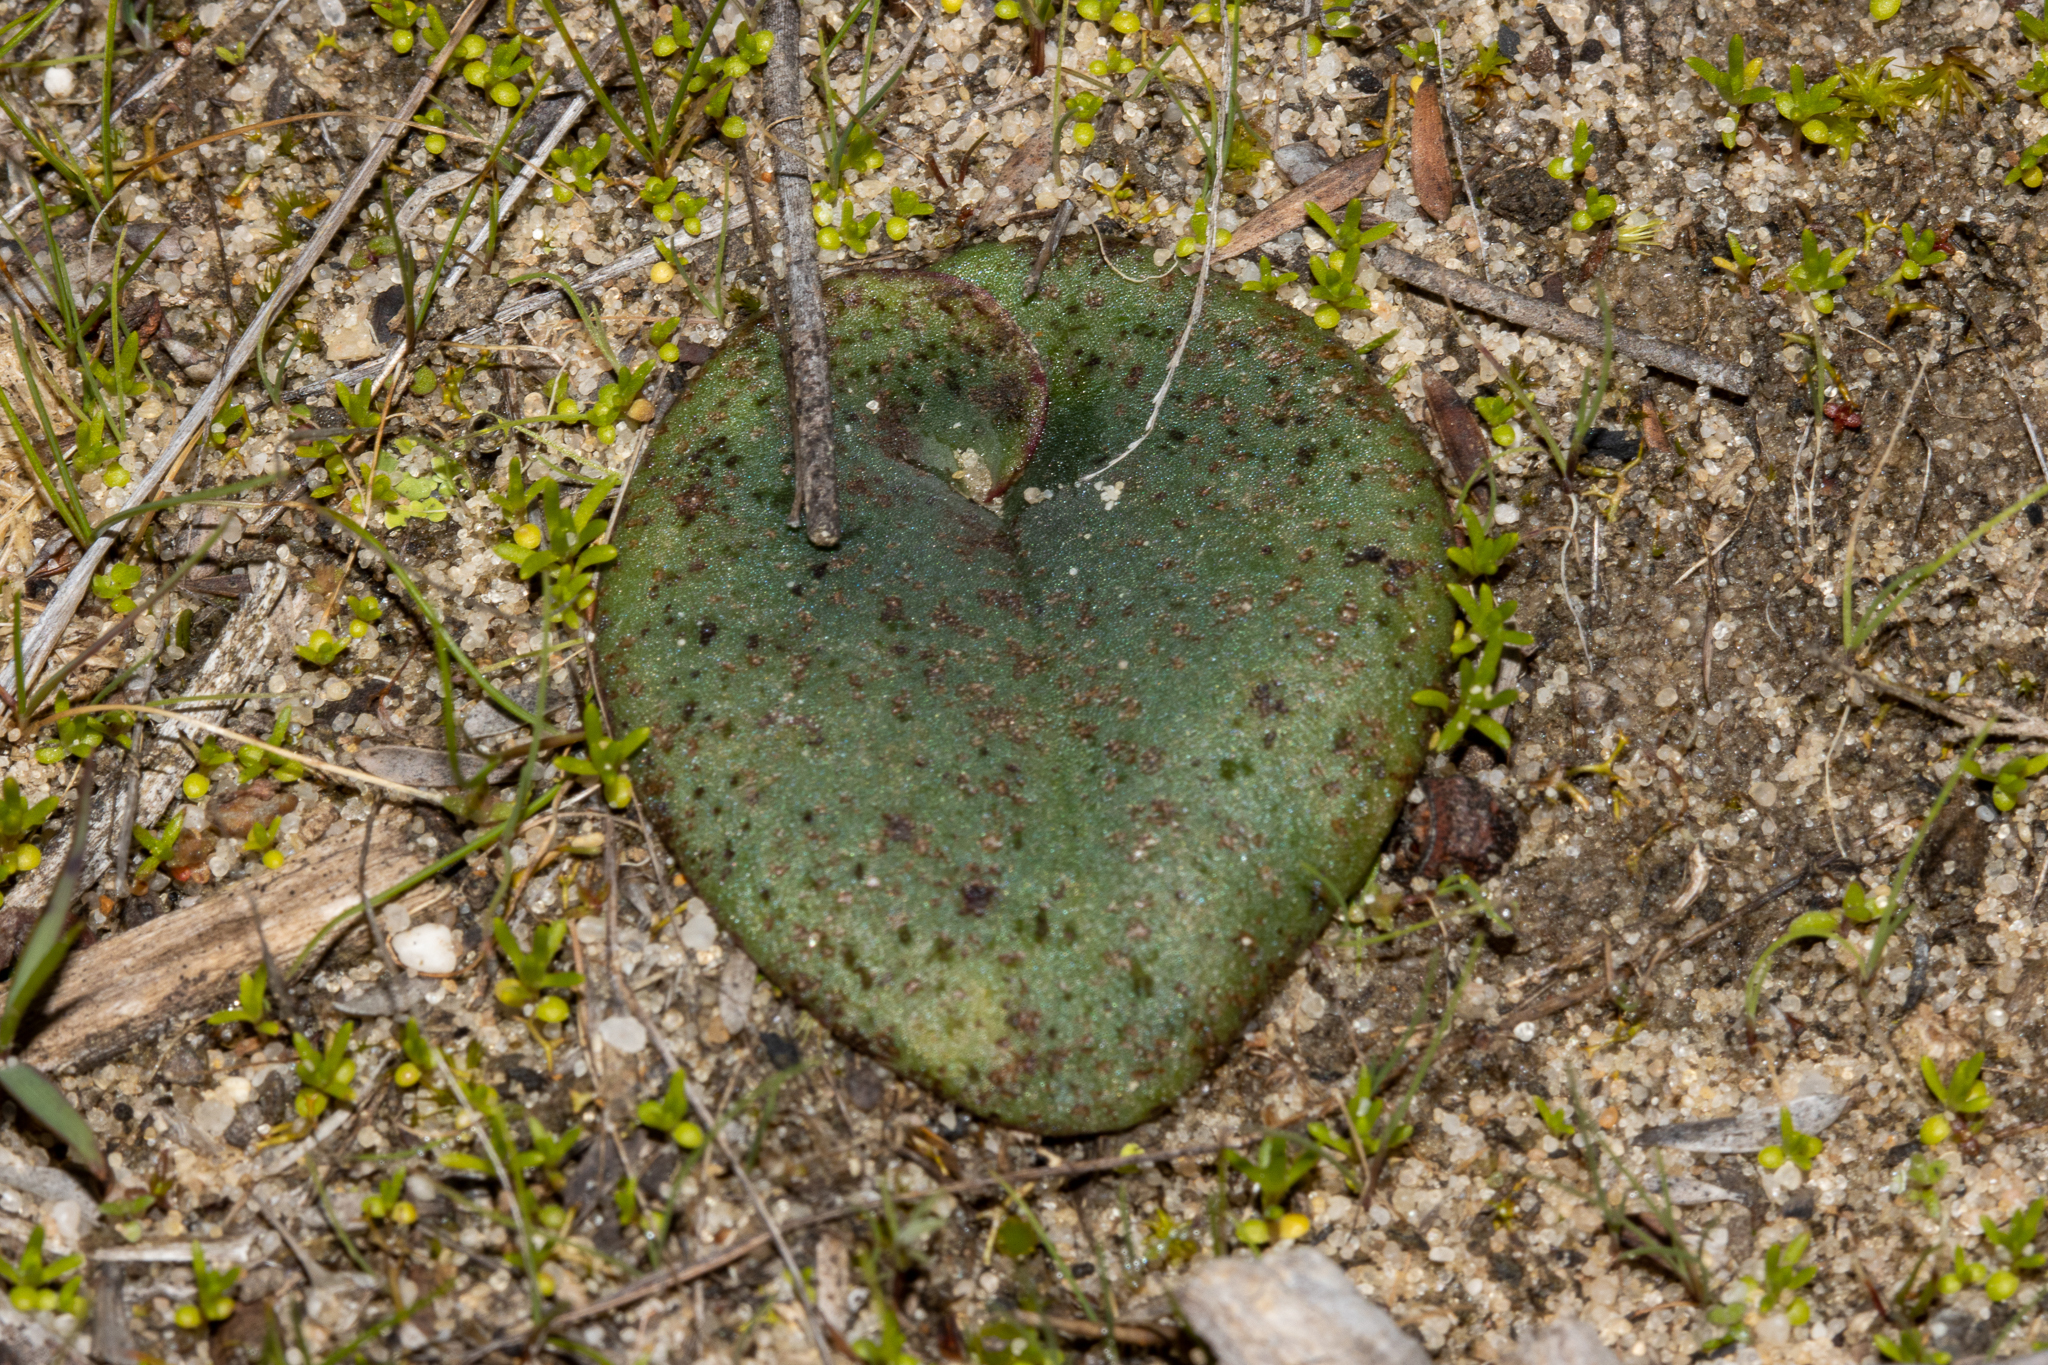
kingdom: Plantae
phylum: Tracheophyta
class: Liliopsida
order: Asparagales
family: Orchidaceae
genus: Pyrorchis
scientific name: Pyrorchis nigricans
